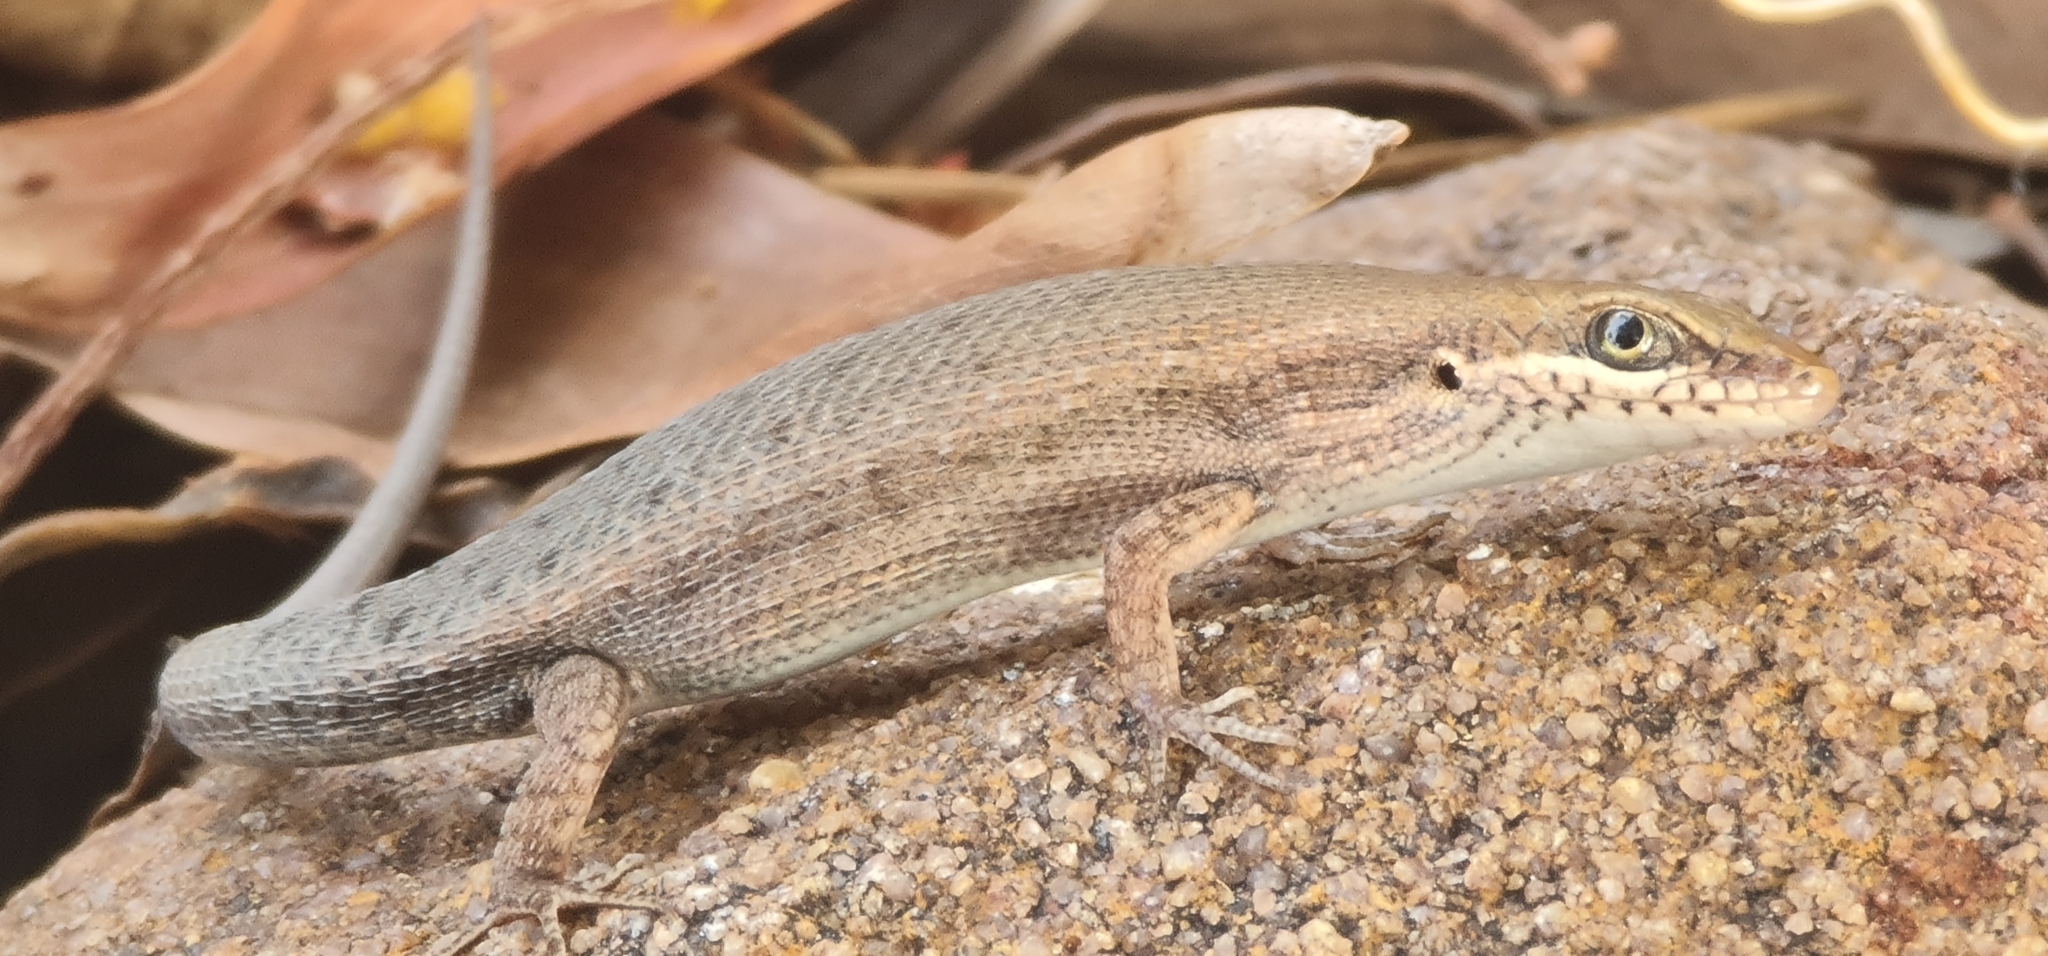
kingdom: Animalia
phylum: Chordata
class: Squamata
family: Scincidae
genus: Carlia
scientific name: Carlia amax
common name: Bauxite rainbow-skink
